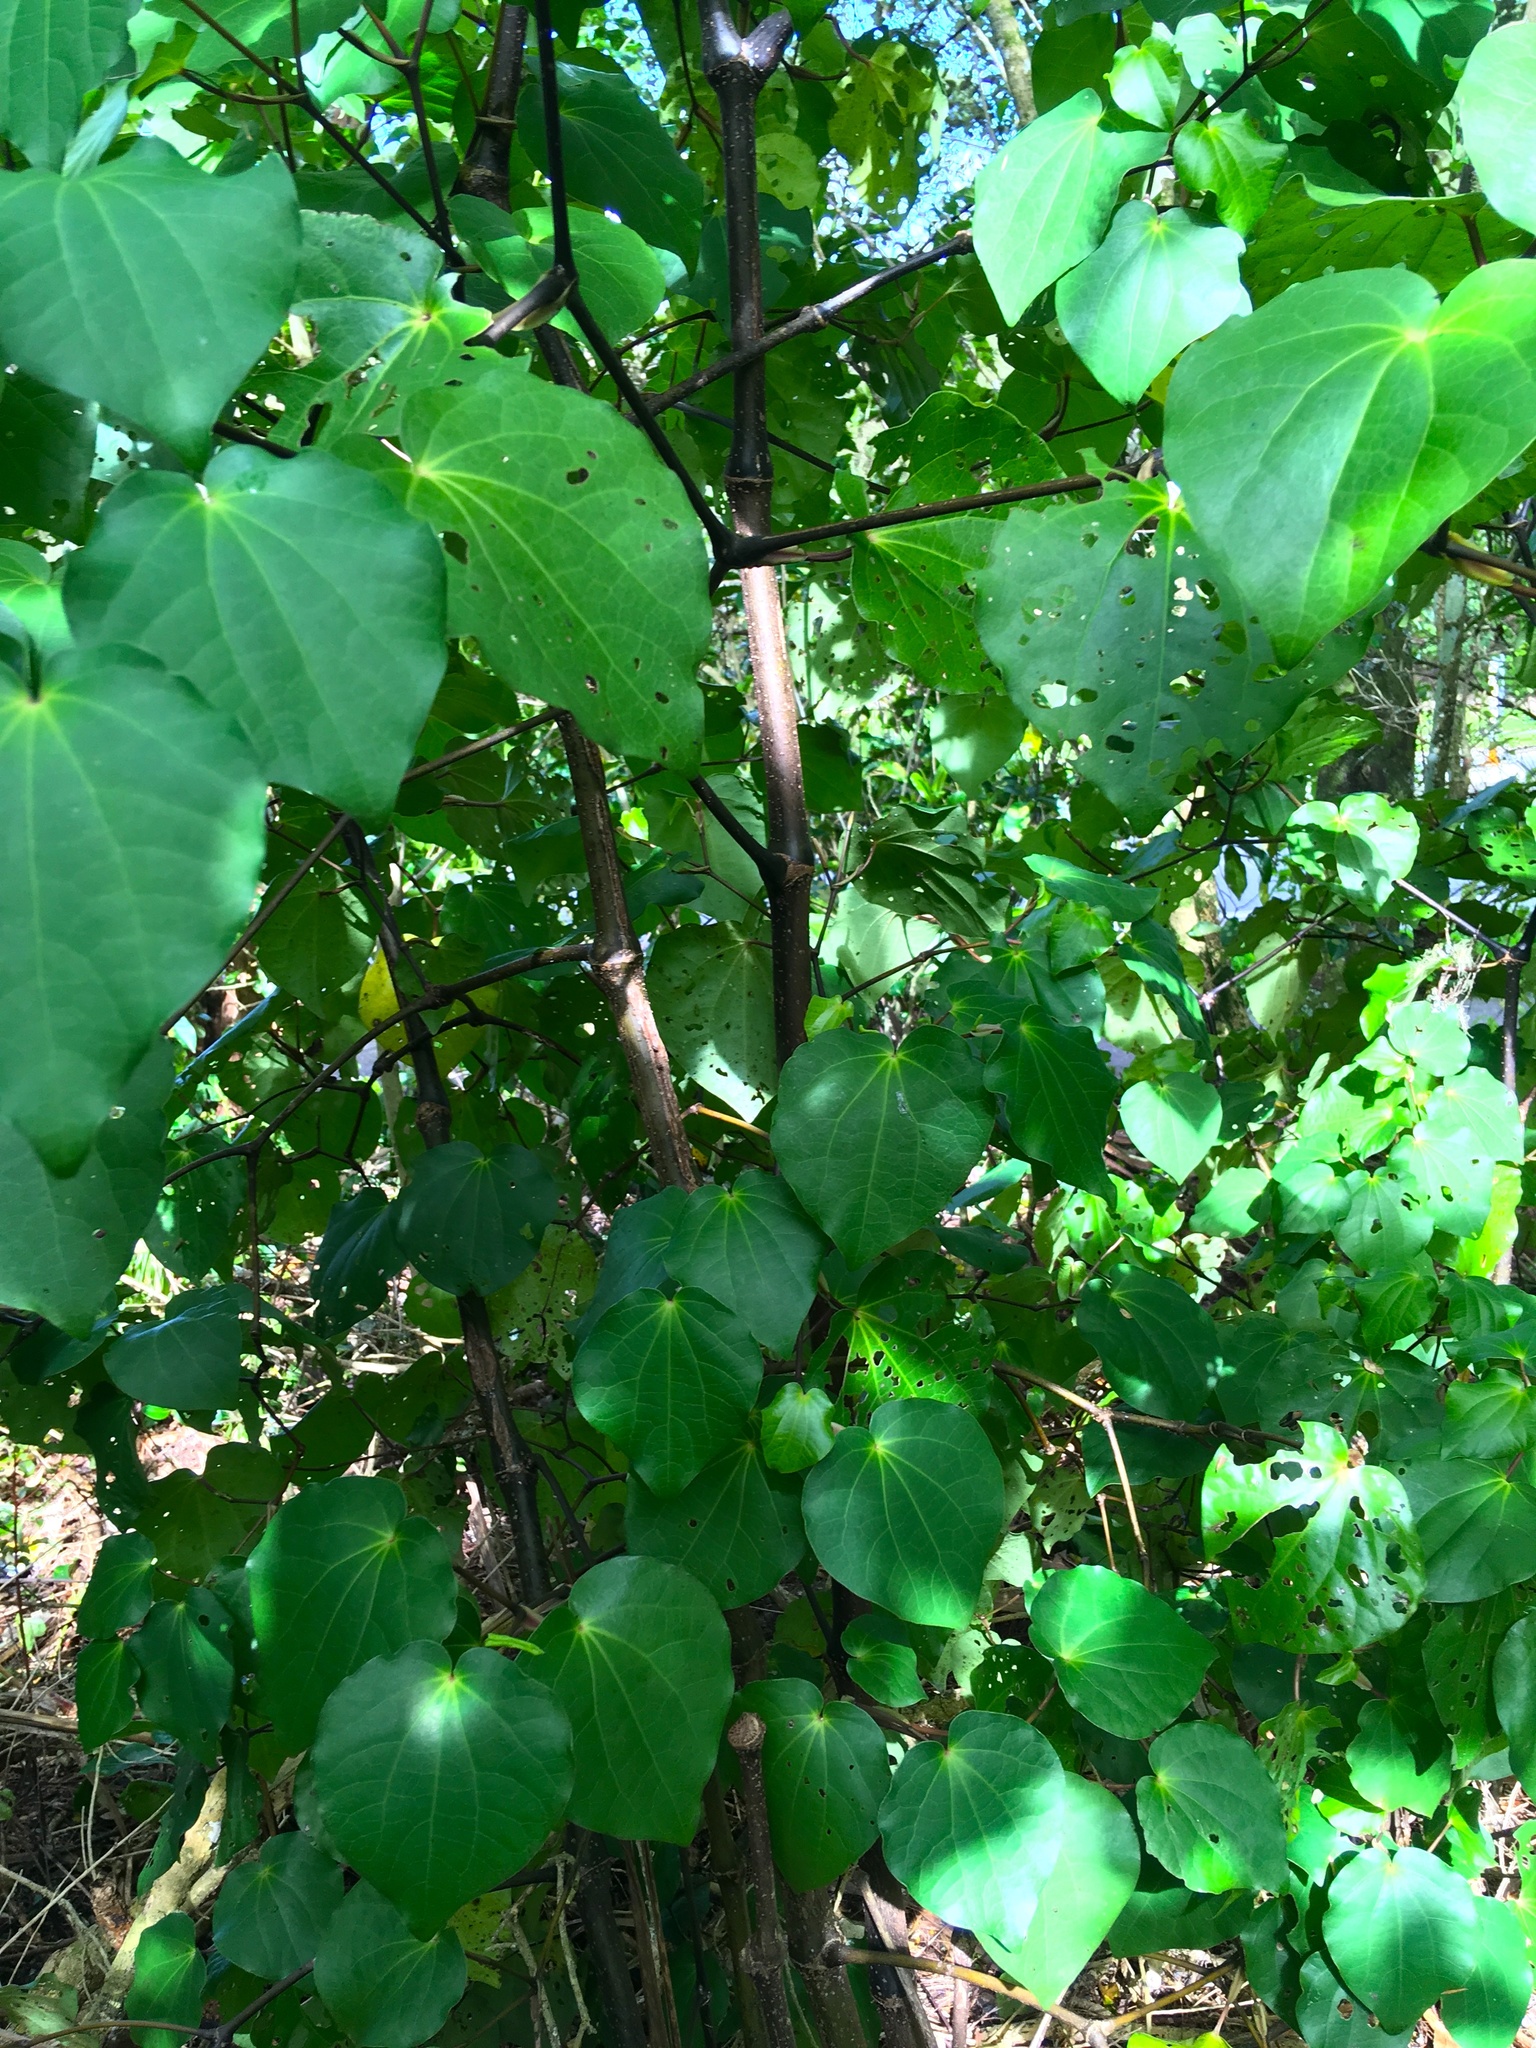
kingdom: Plantae
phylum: Tracheophyta
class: Magnoliopsida
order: Piperales
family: Piperaceae
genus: Macropiper
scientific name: Macropiper excelsum
